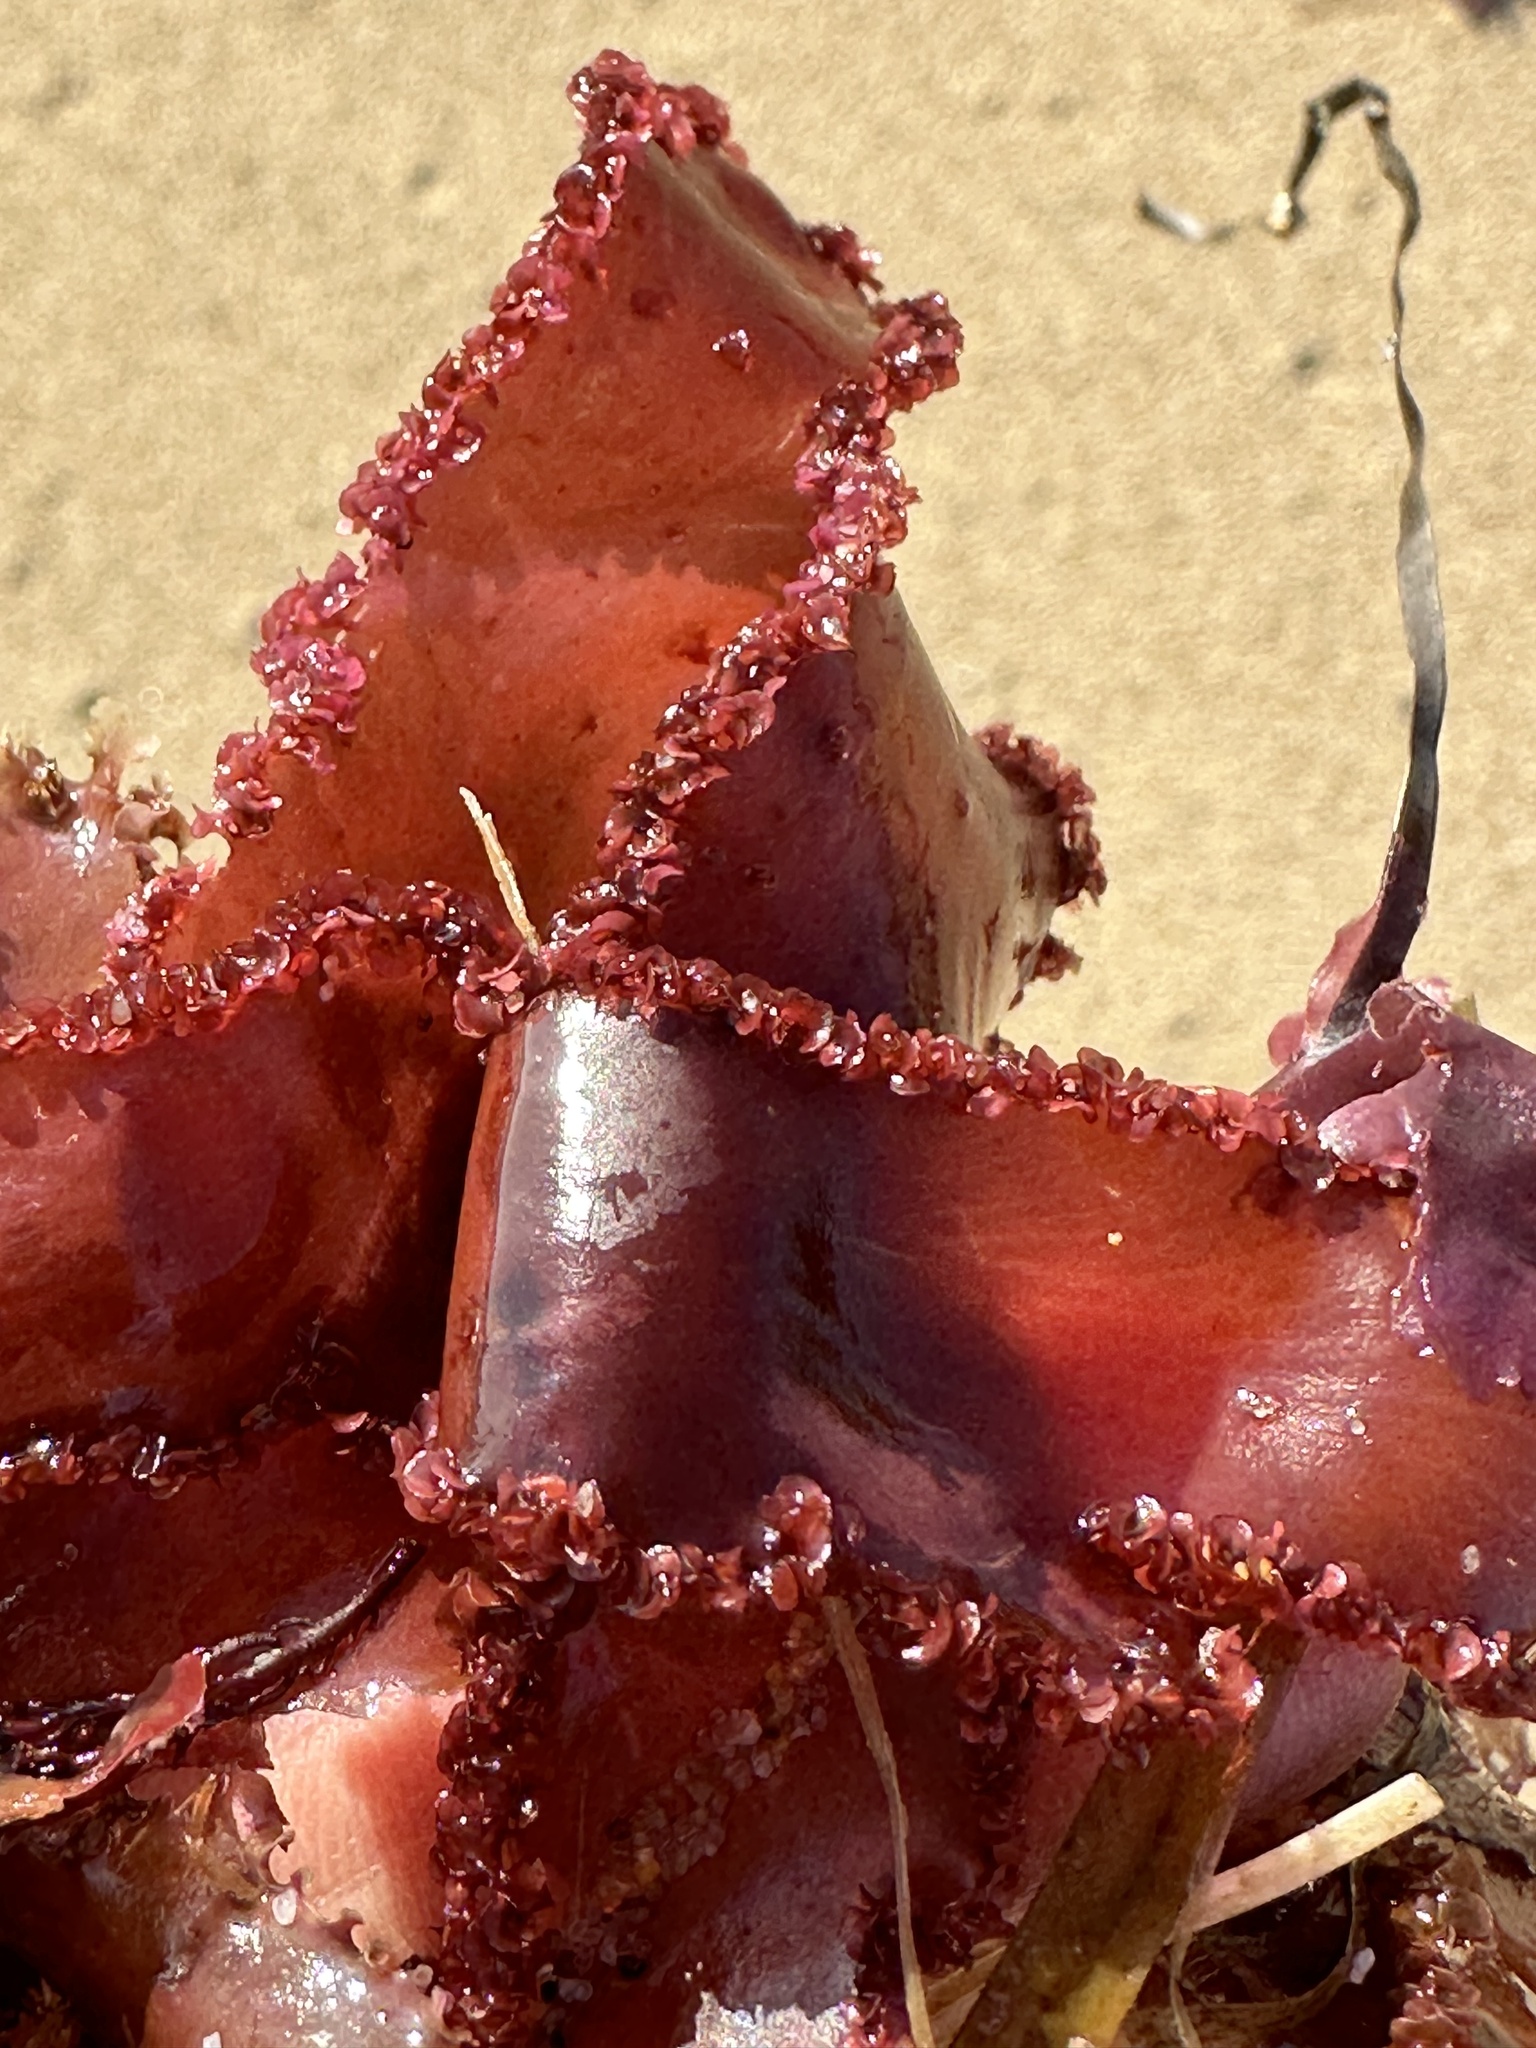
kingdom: Plantae
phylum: Rhodophyta
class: Florideophyceae
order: Ceramiales
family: Delesseriaceae
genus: Cryptopleura
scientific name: Cryptopleura ruprechtiana
